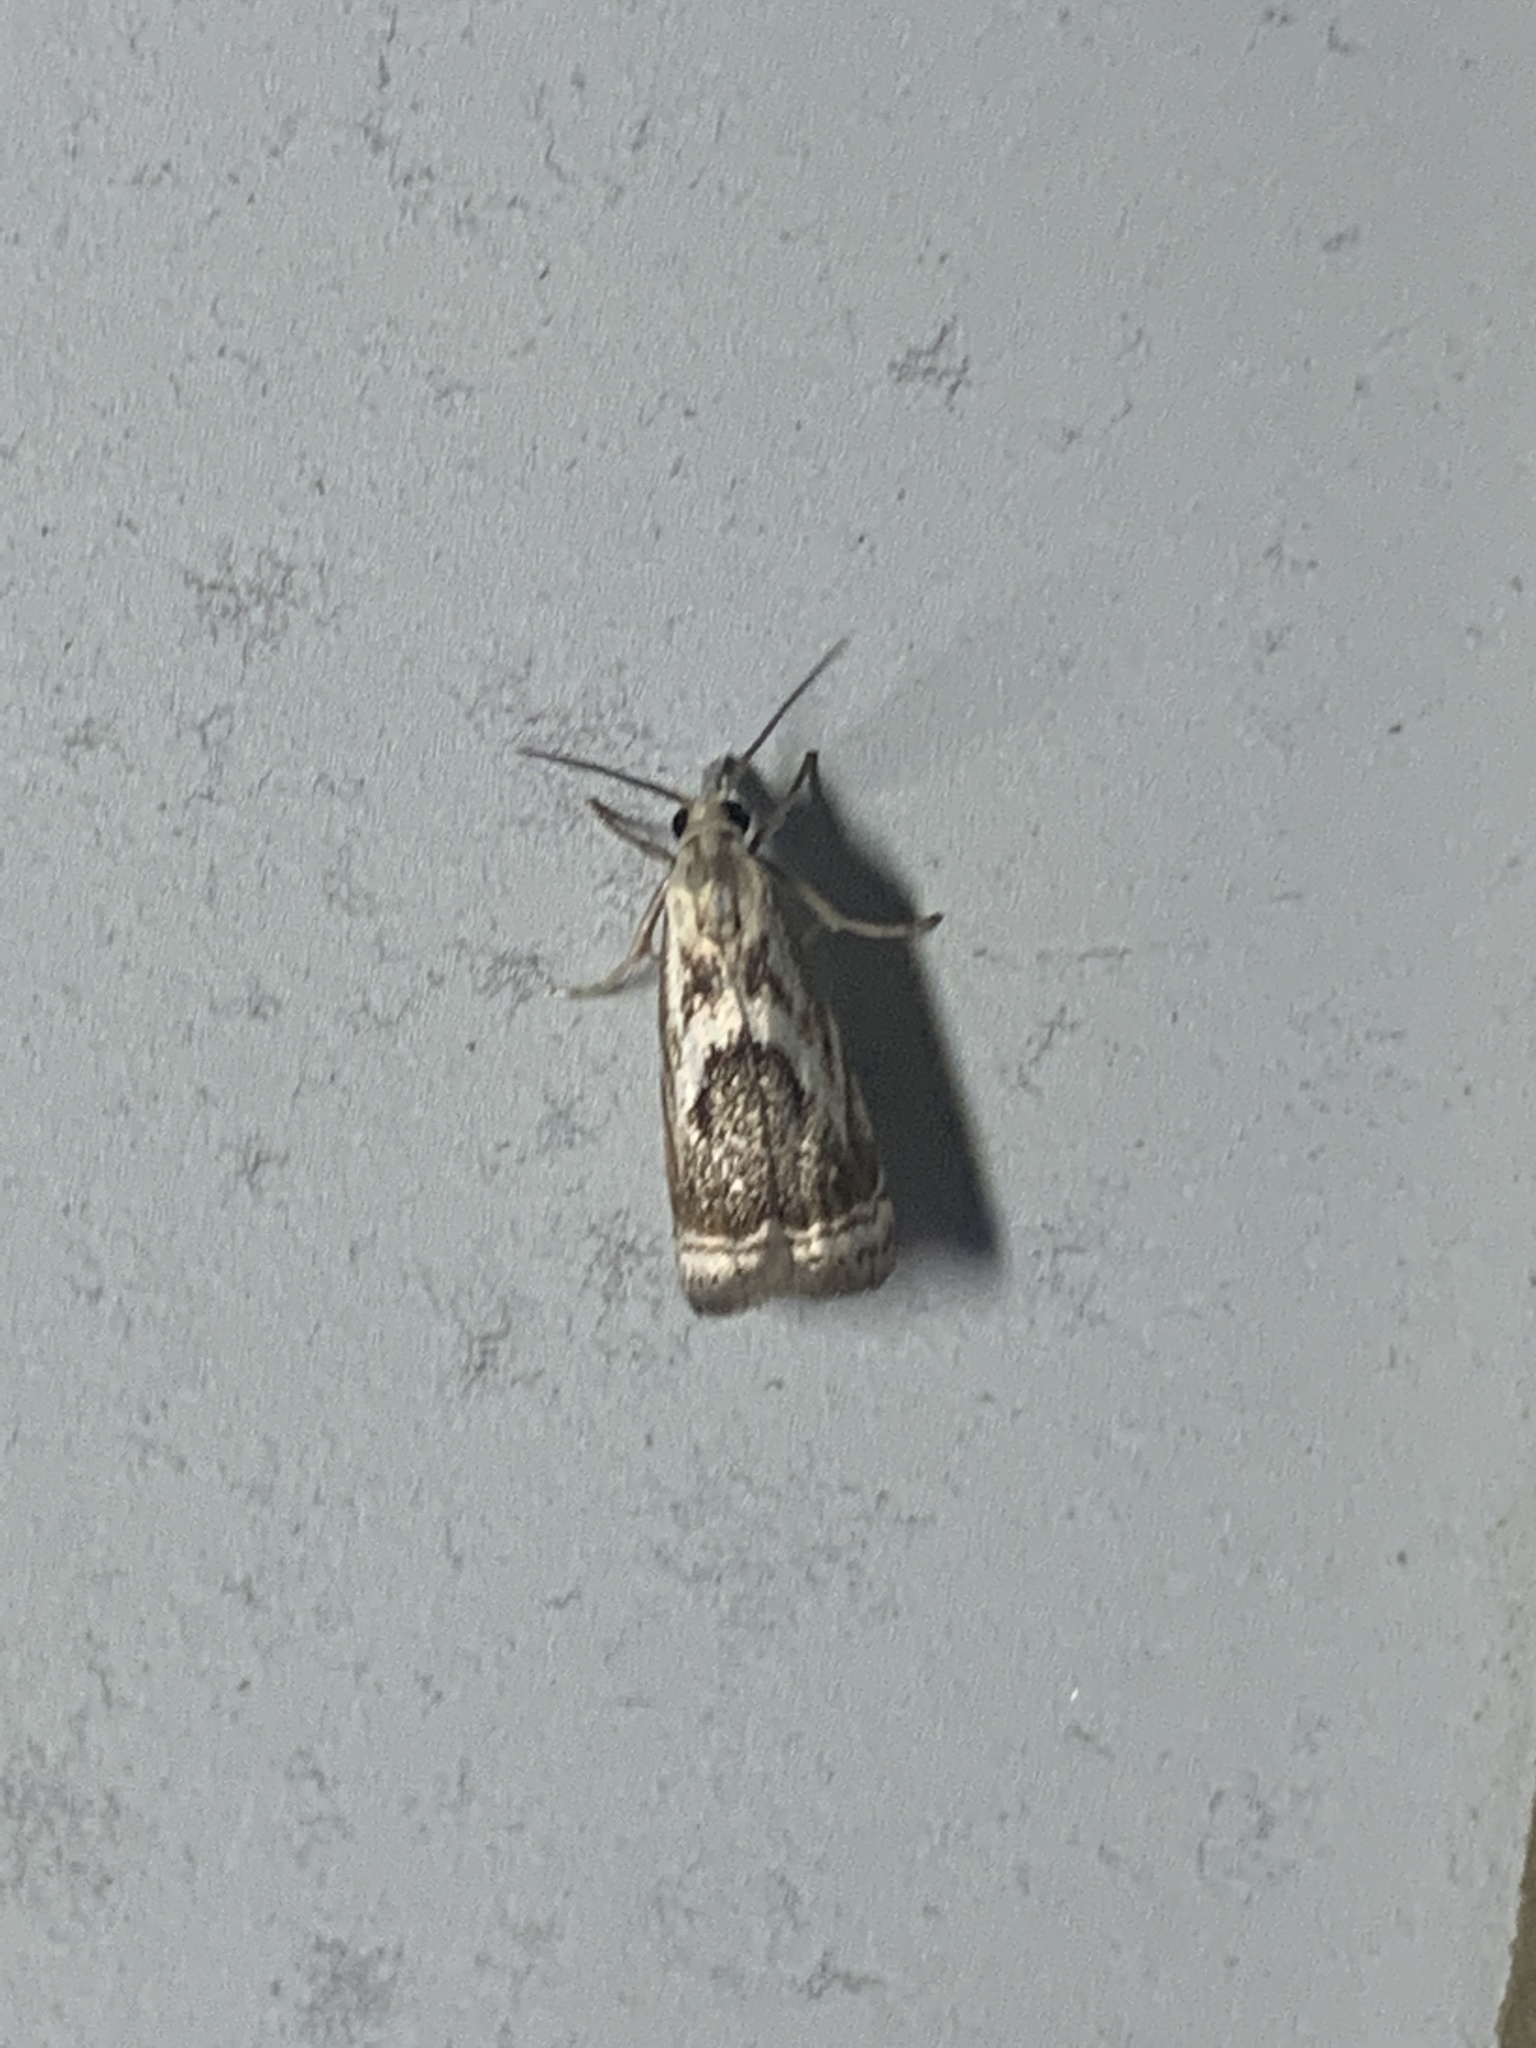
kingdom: Animalia
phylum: Arthropoda
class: Insecta
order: Lepidoptera
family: Crambidae
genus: Microcrambus
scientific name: Microcrambus elegans
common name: Elegant grass-veneer
